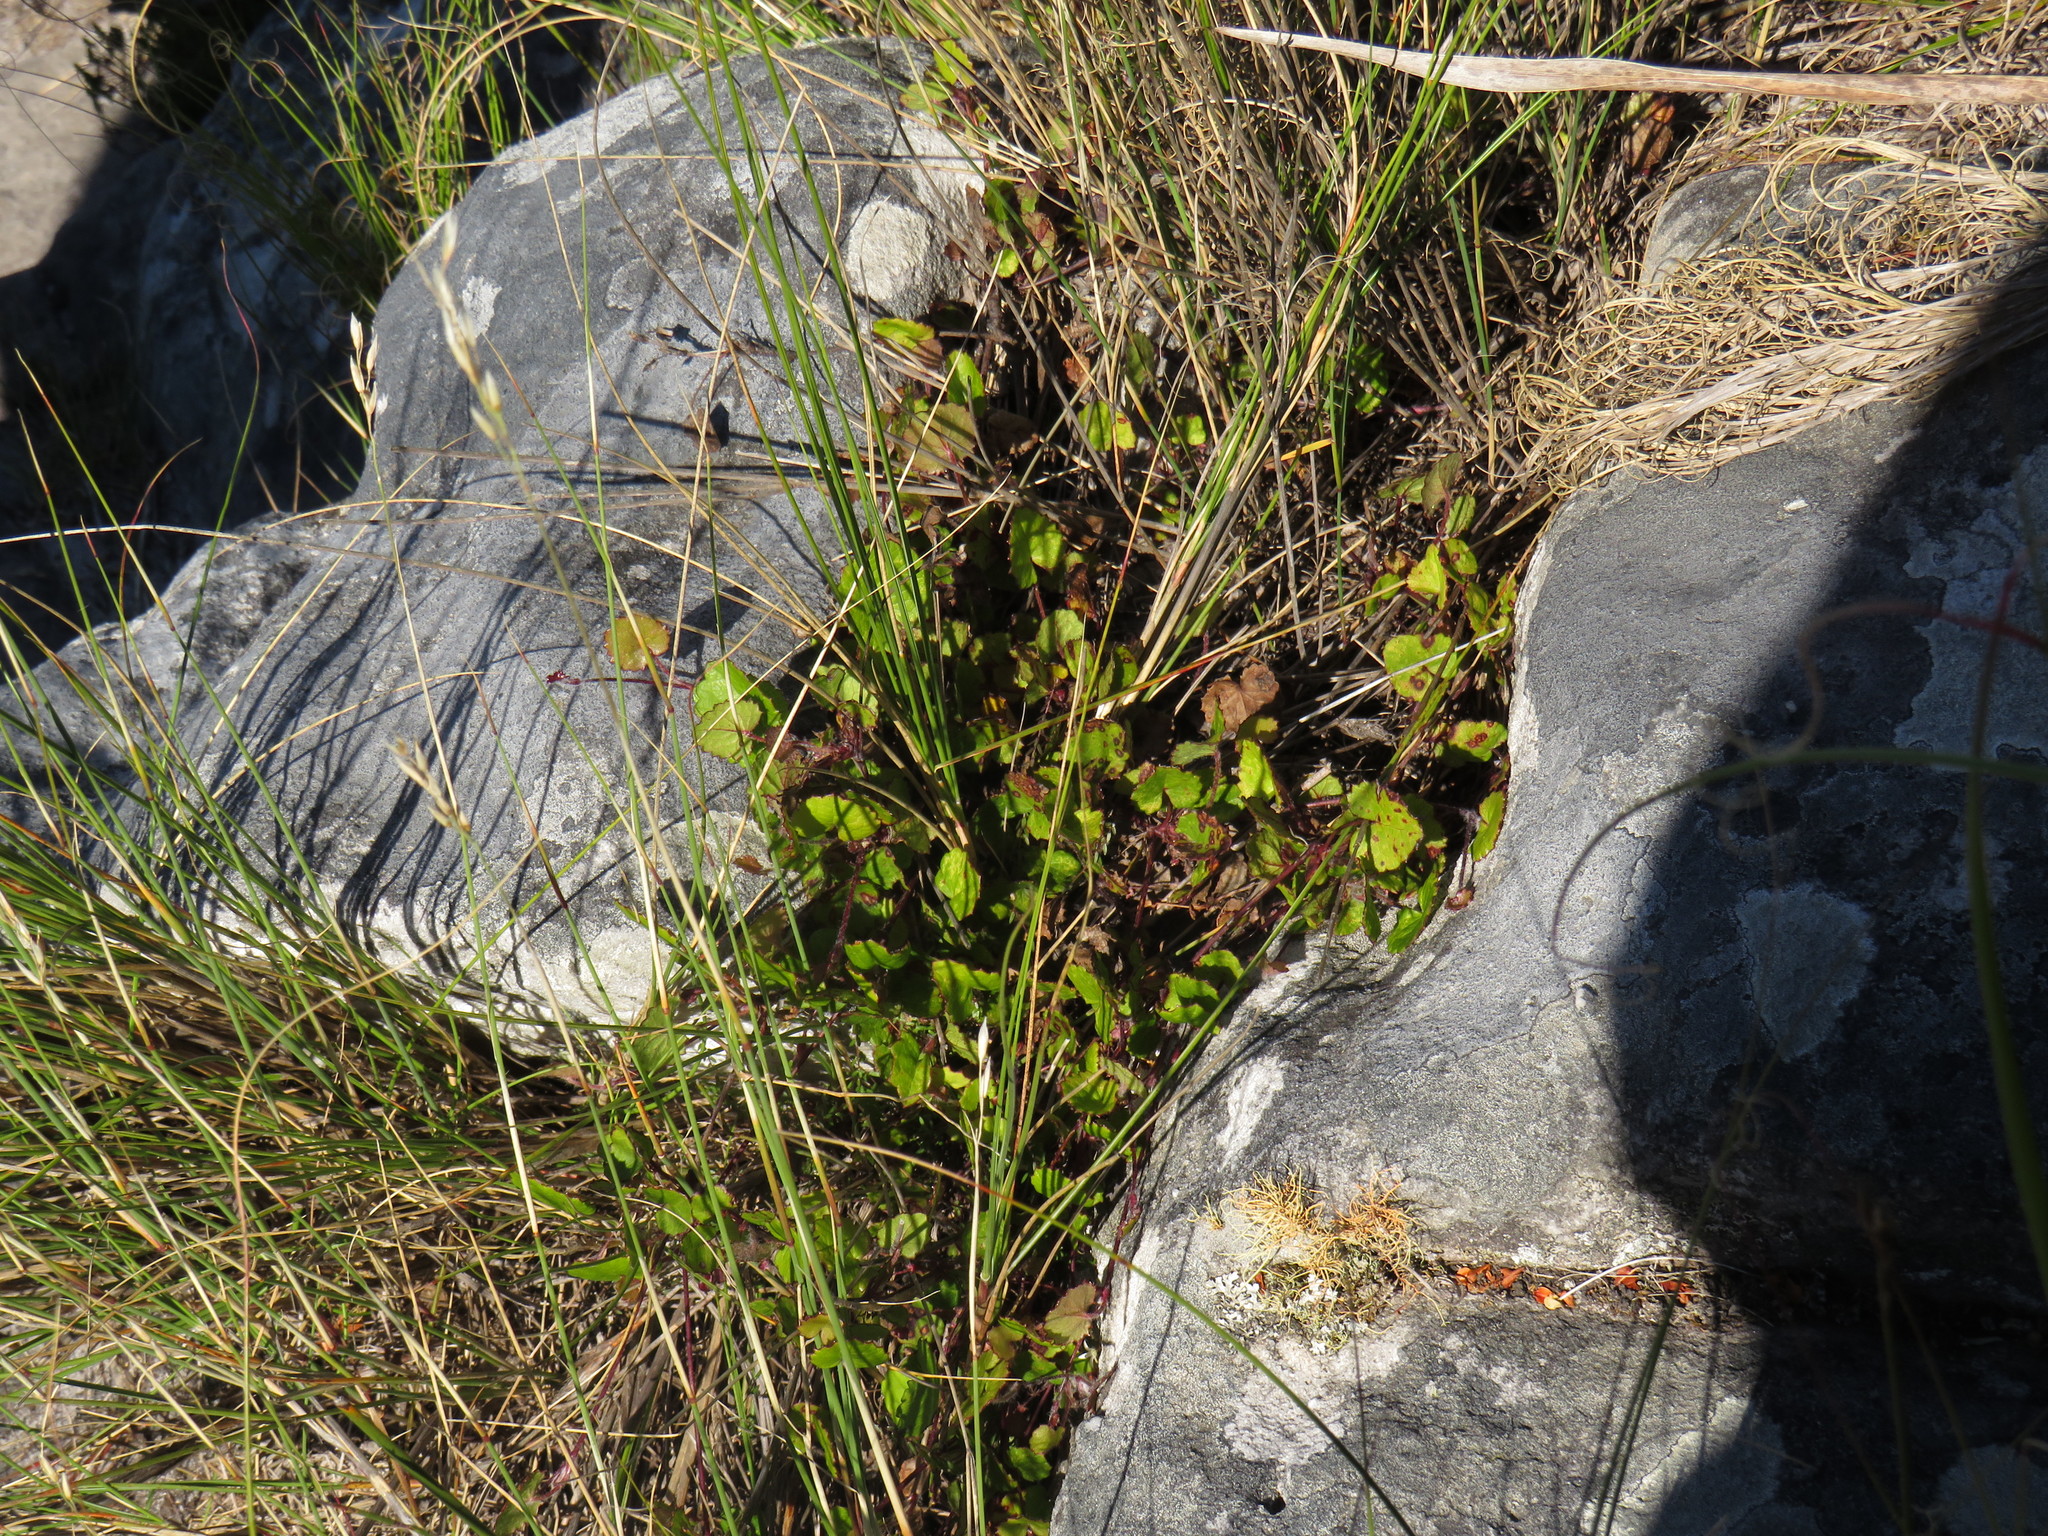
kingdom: Plantae
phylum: Tracheophyta
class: Magnoliopsida
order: Apiales
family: Apiaceae
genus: Centella
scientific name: Centella eriantha
